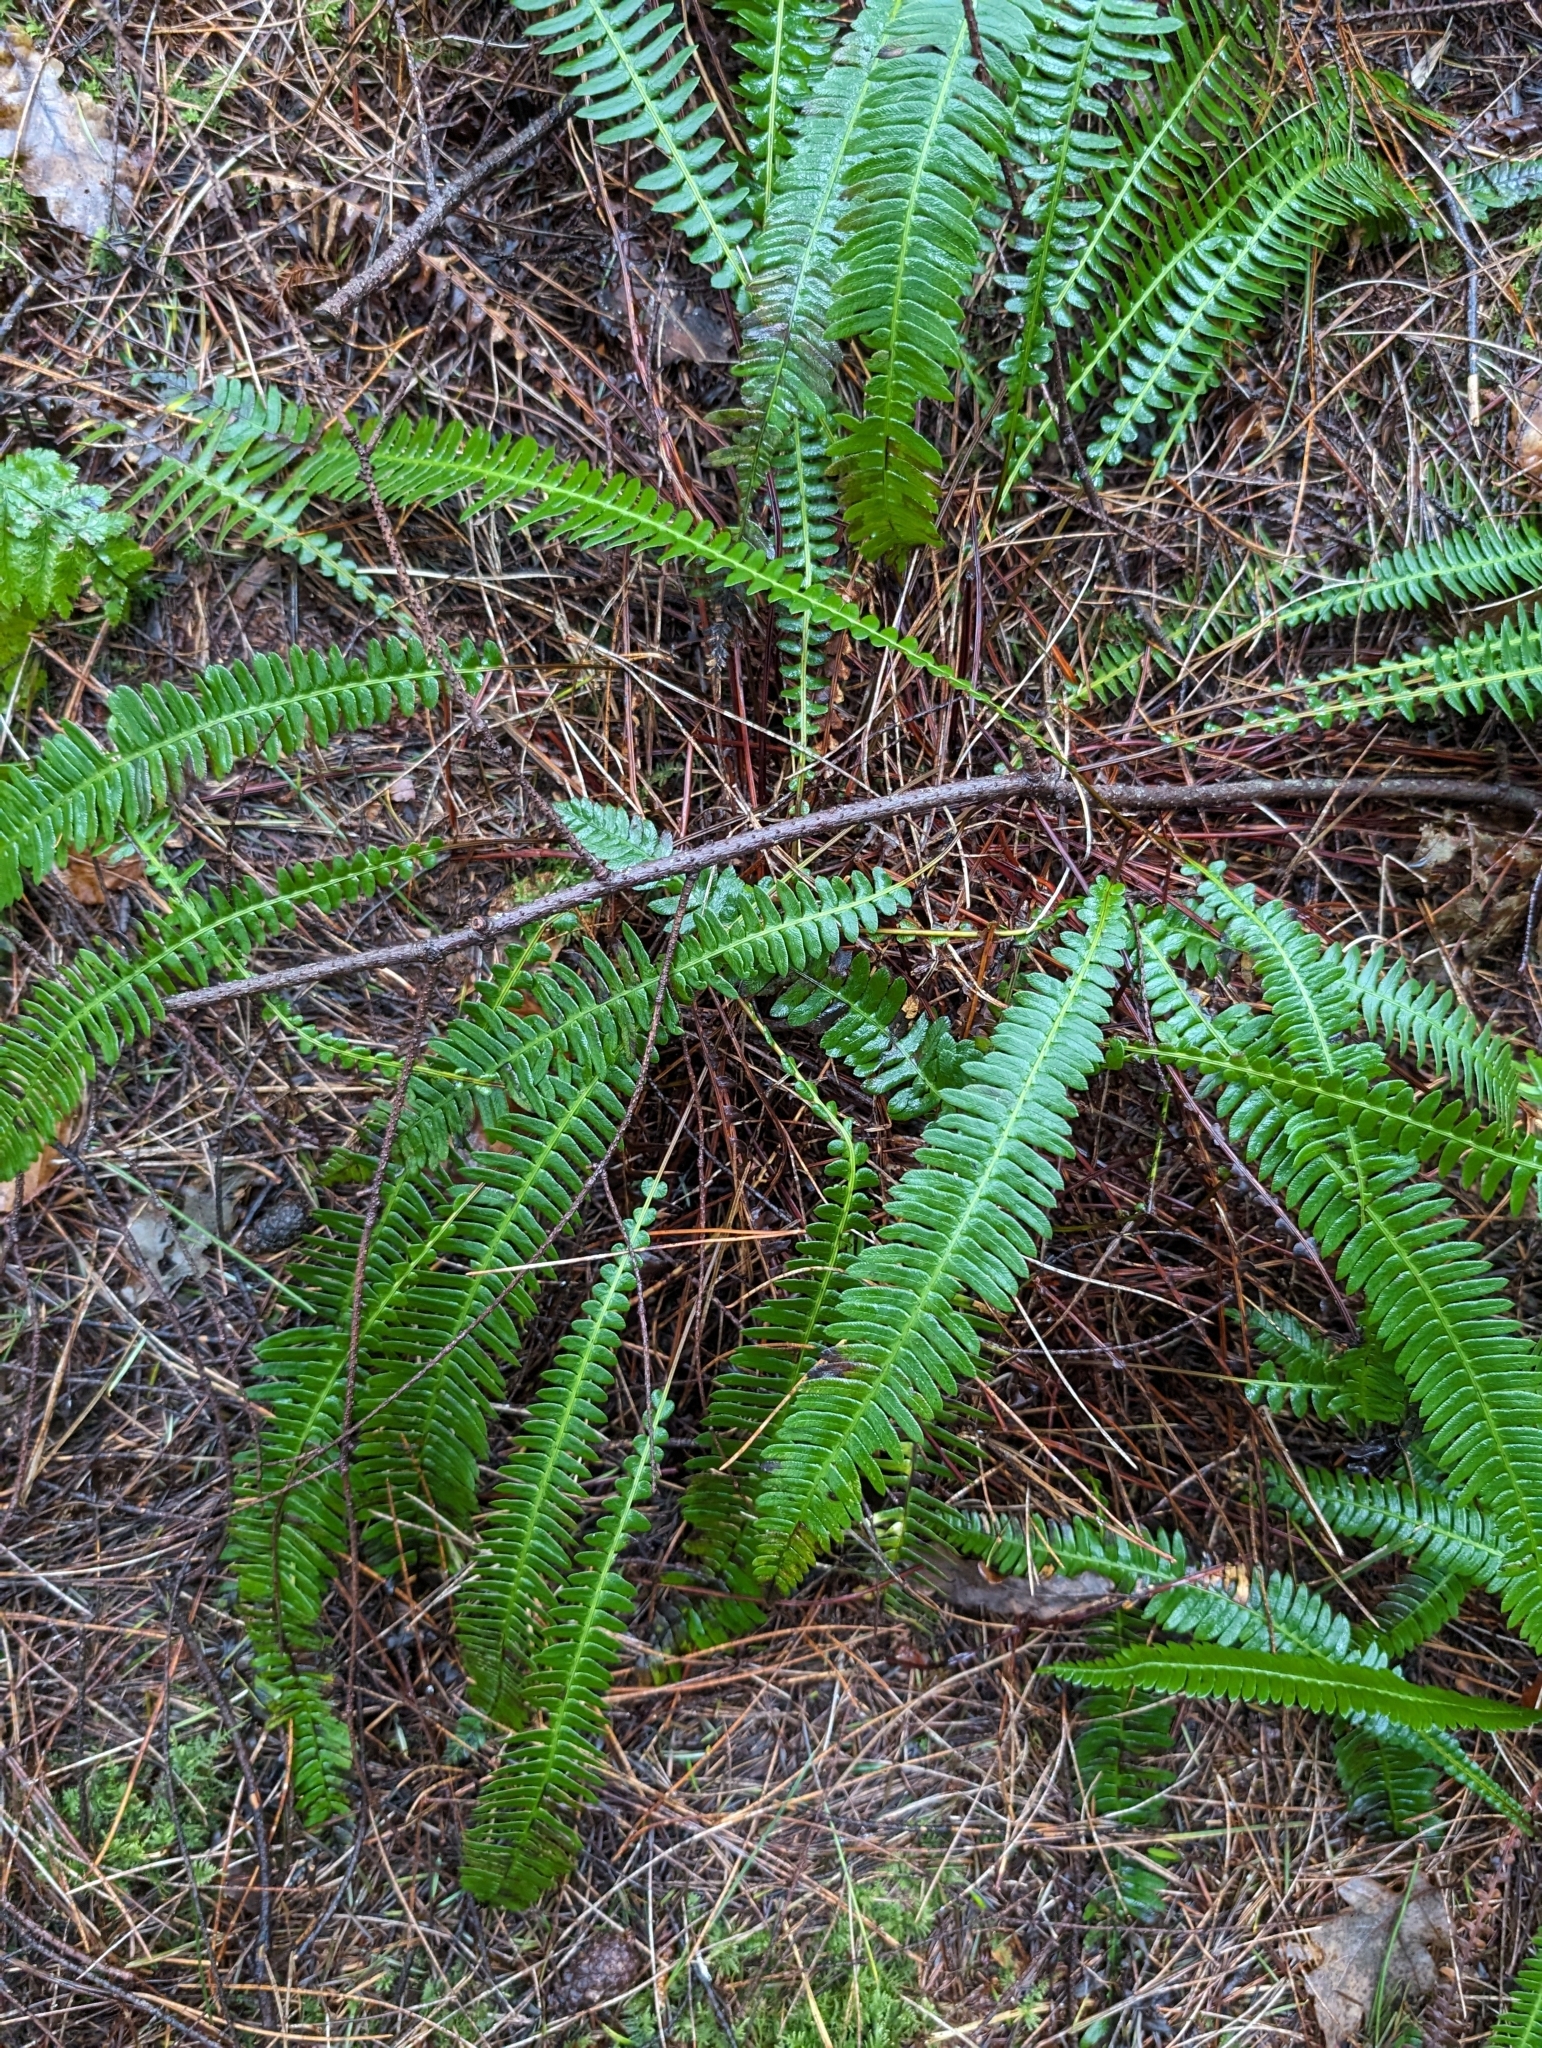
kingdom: Plantae
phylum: Tracheophyta
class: Polypodiopsida
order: Polypodiales
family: Blechnaceae
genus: Struthiopteris
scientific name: Struthiopteris spicant
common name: Deer fern
